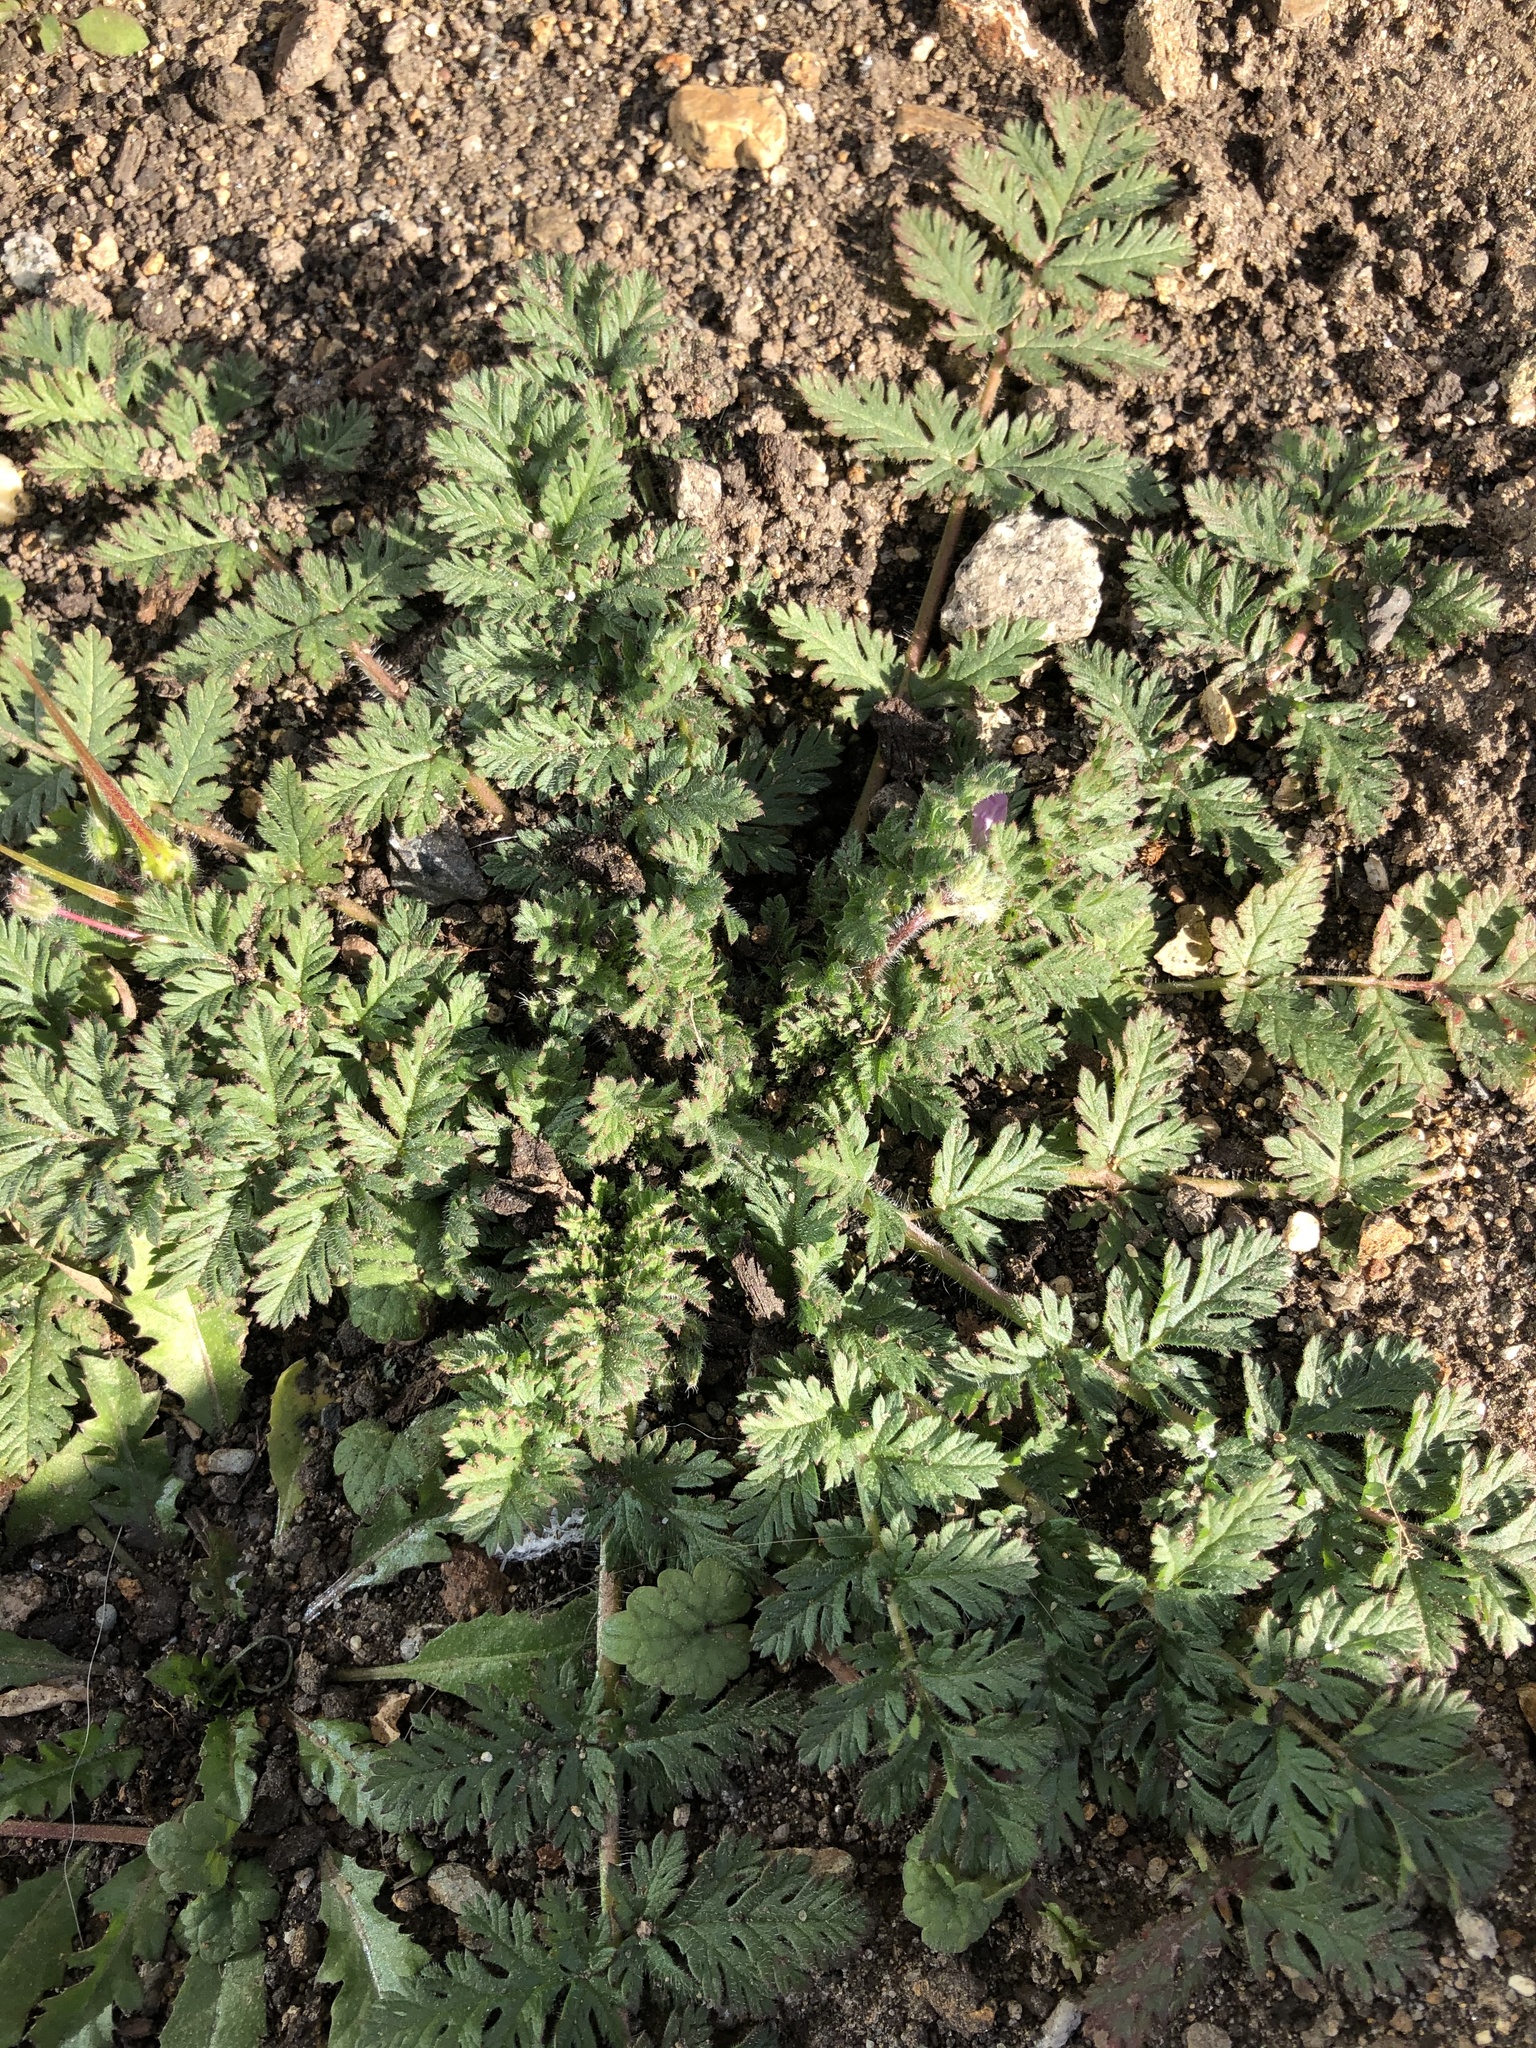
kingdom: Plantae
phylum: Tracheophyta
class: Magnoliopsida
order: Geraniales
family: Geraniaceae
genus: Erodium
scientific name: Erodium cicutarium
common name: Common stork's-bill
